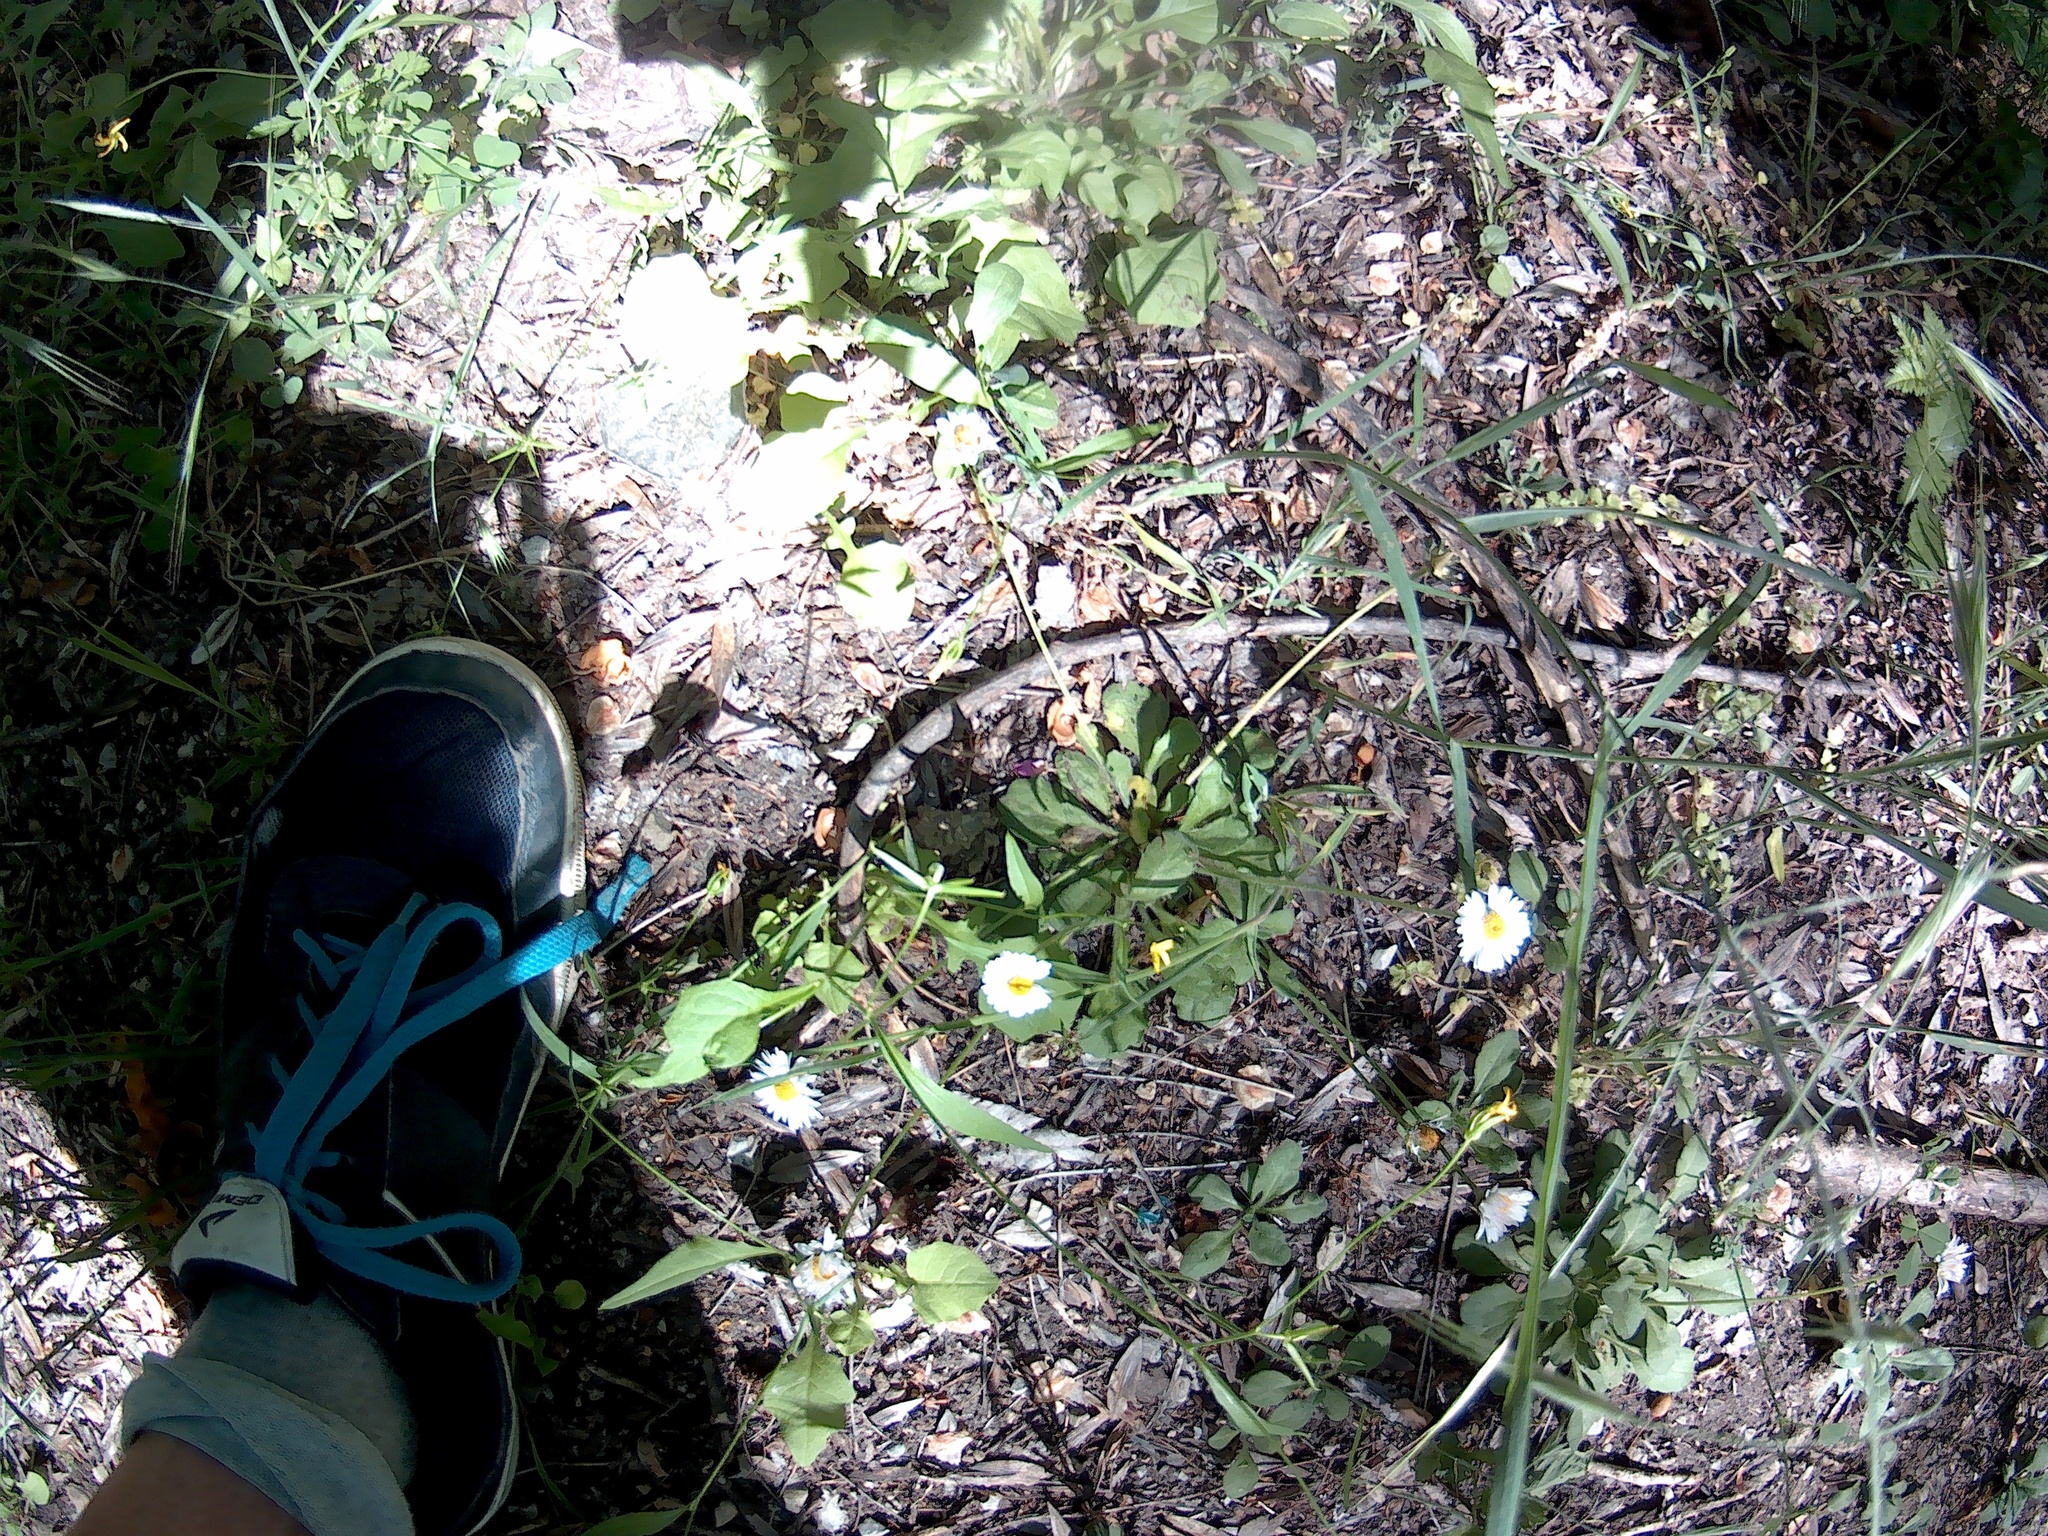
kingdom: Plantae
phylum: Tracheophyta
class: Magnoliopsida
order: Asterales
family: Asteraceae
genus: Bellis
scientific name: Bellis perennis
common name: Lawndaisy
